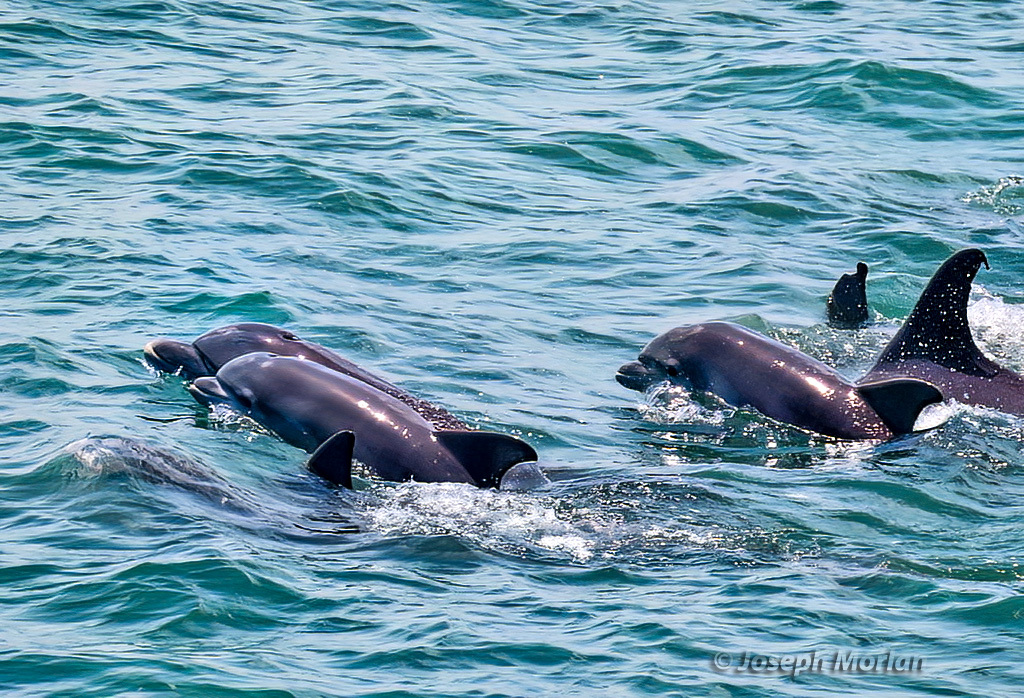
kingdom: Animalia
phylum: Chordata
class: Mammalia
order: Cetacea
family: Delphinidae
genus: Tursiops
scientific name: Tursiops truncatus
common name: Bottlenose dolphin
